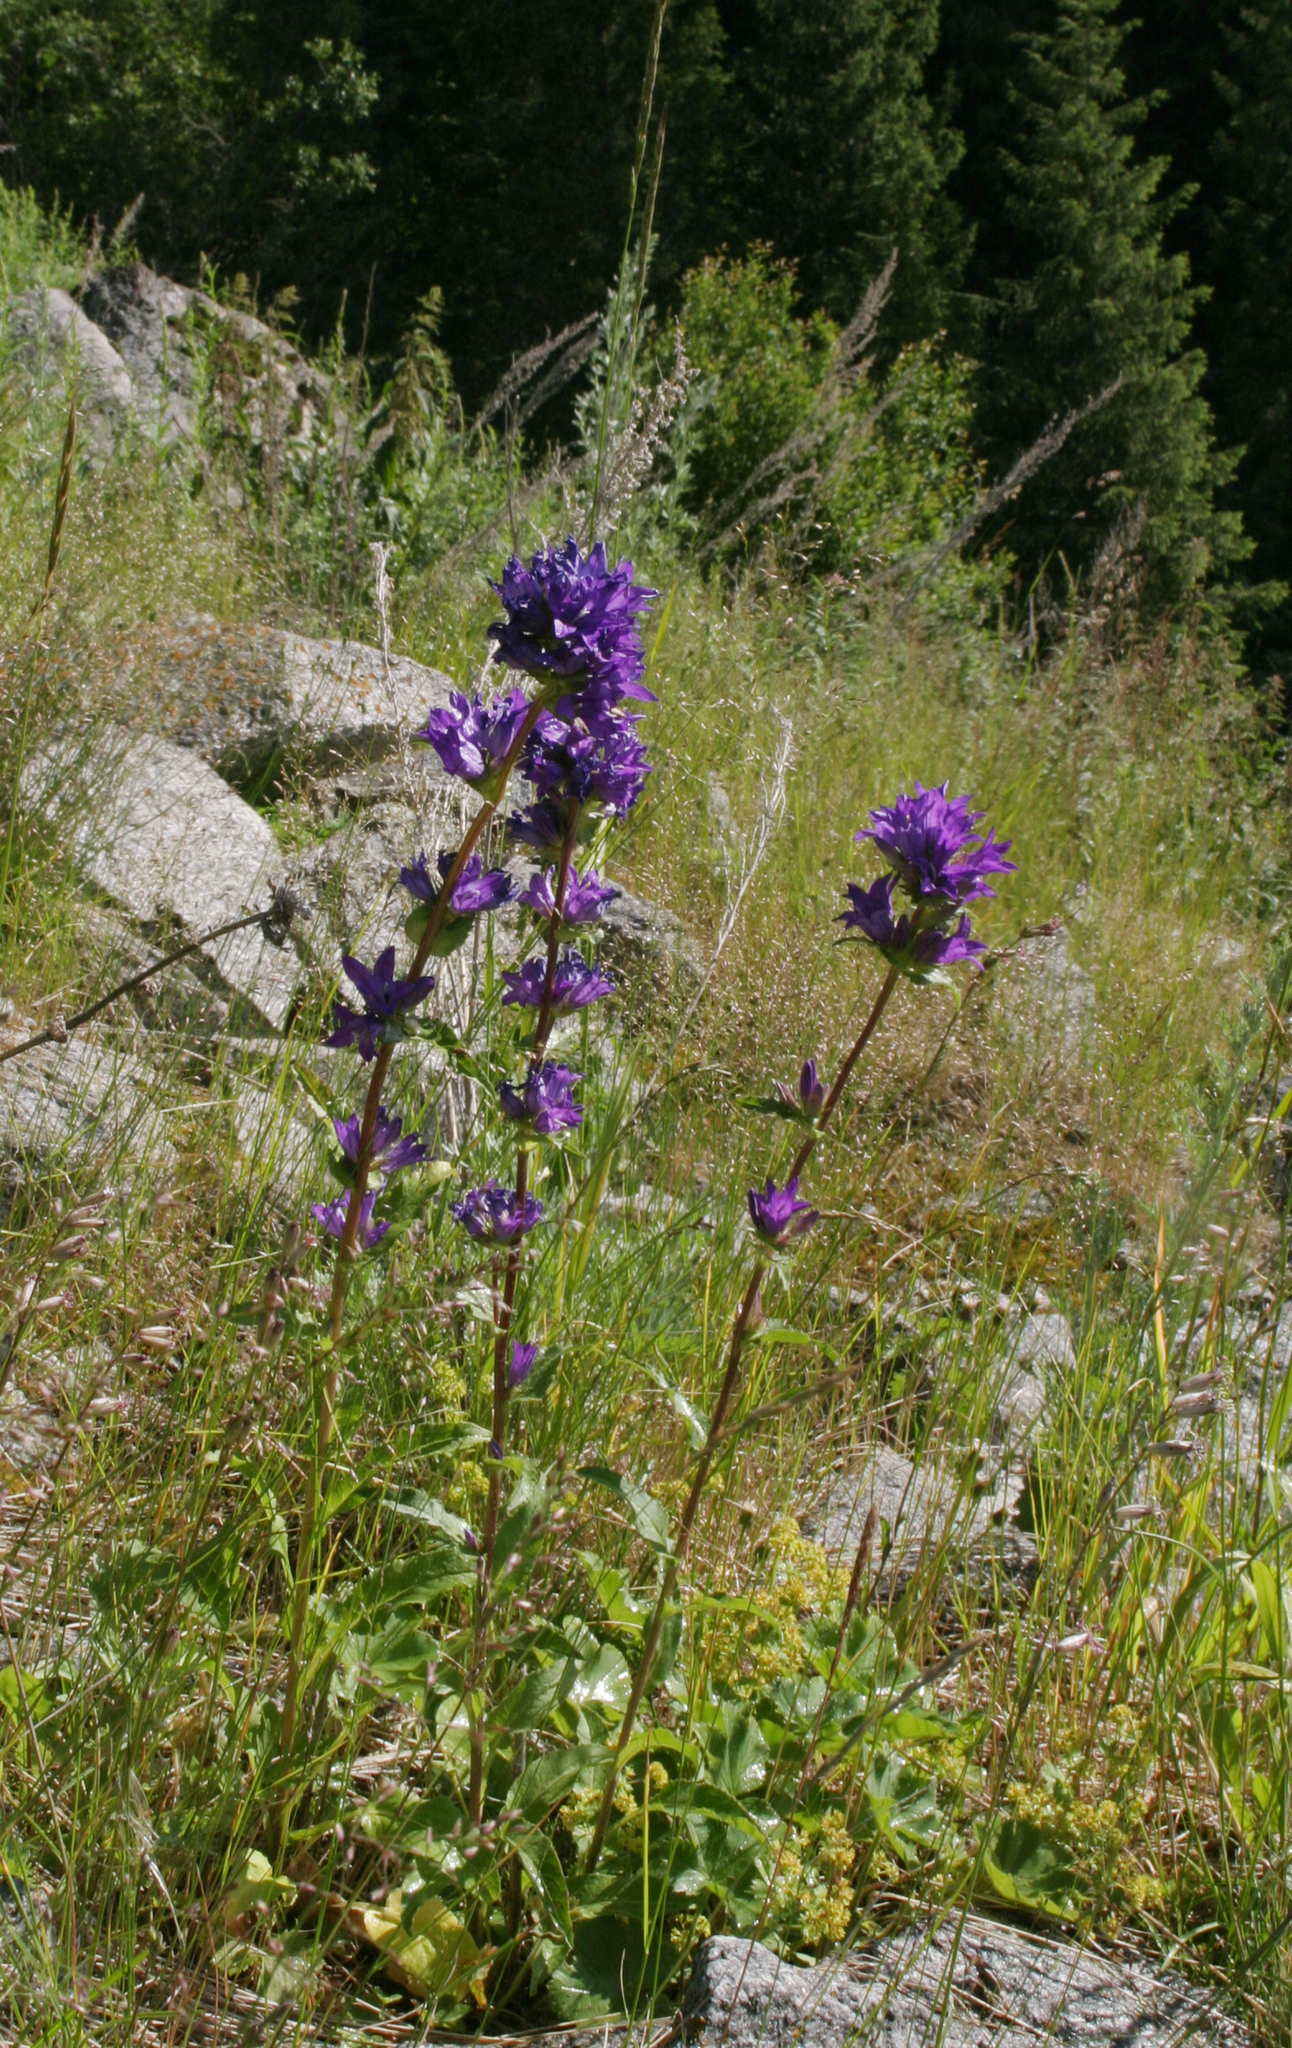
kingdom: Plantae
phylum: Tracheophyta
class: Magnoliopsida
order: Asterales
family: Campanulaceae
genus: Campanula
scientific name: Campanula glomerata
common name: Clustered bellflower
